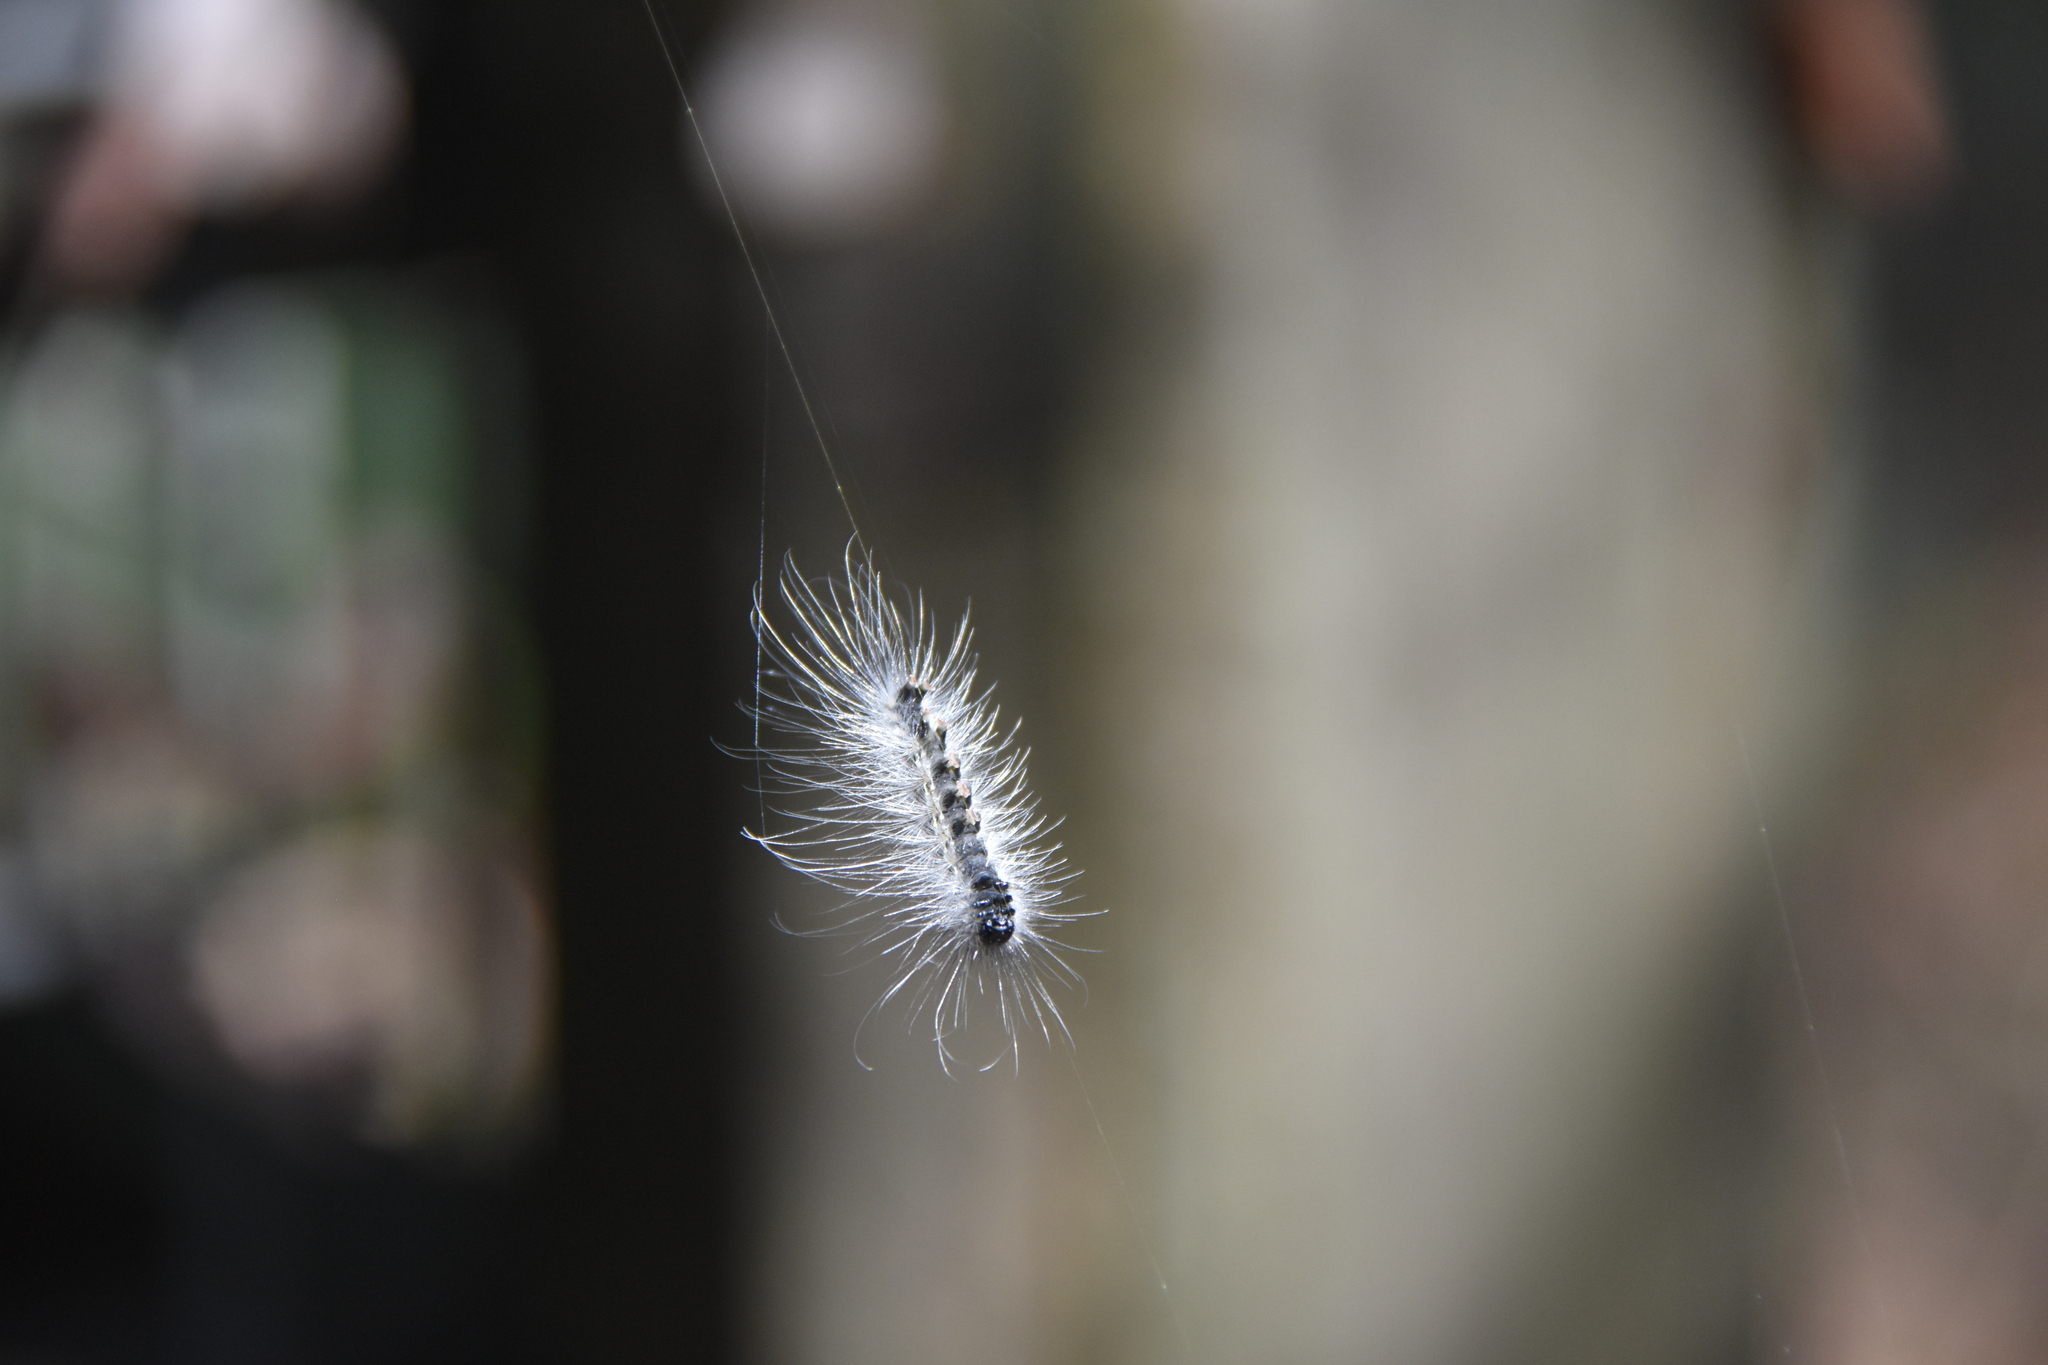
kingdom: Animalia
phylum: Arthropoda
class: Insecta
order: Lepidoptera
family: Erebidae
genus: Hyphantria
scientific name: Hyphantria cunea
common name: American white moth
